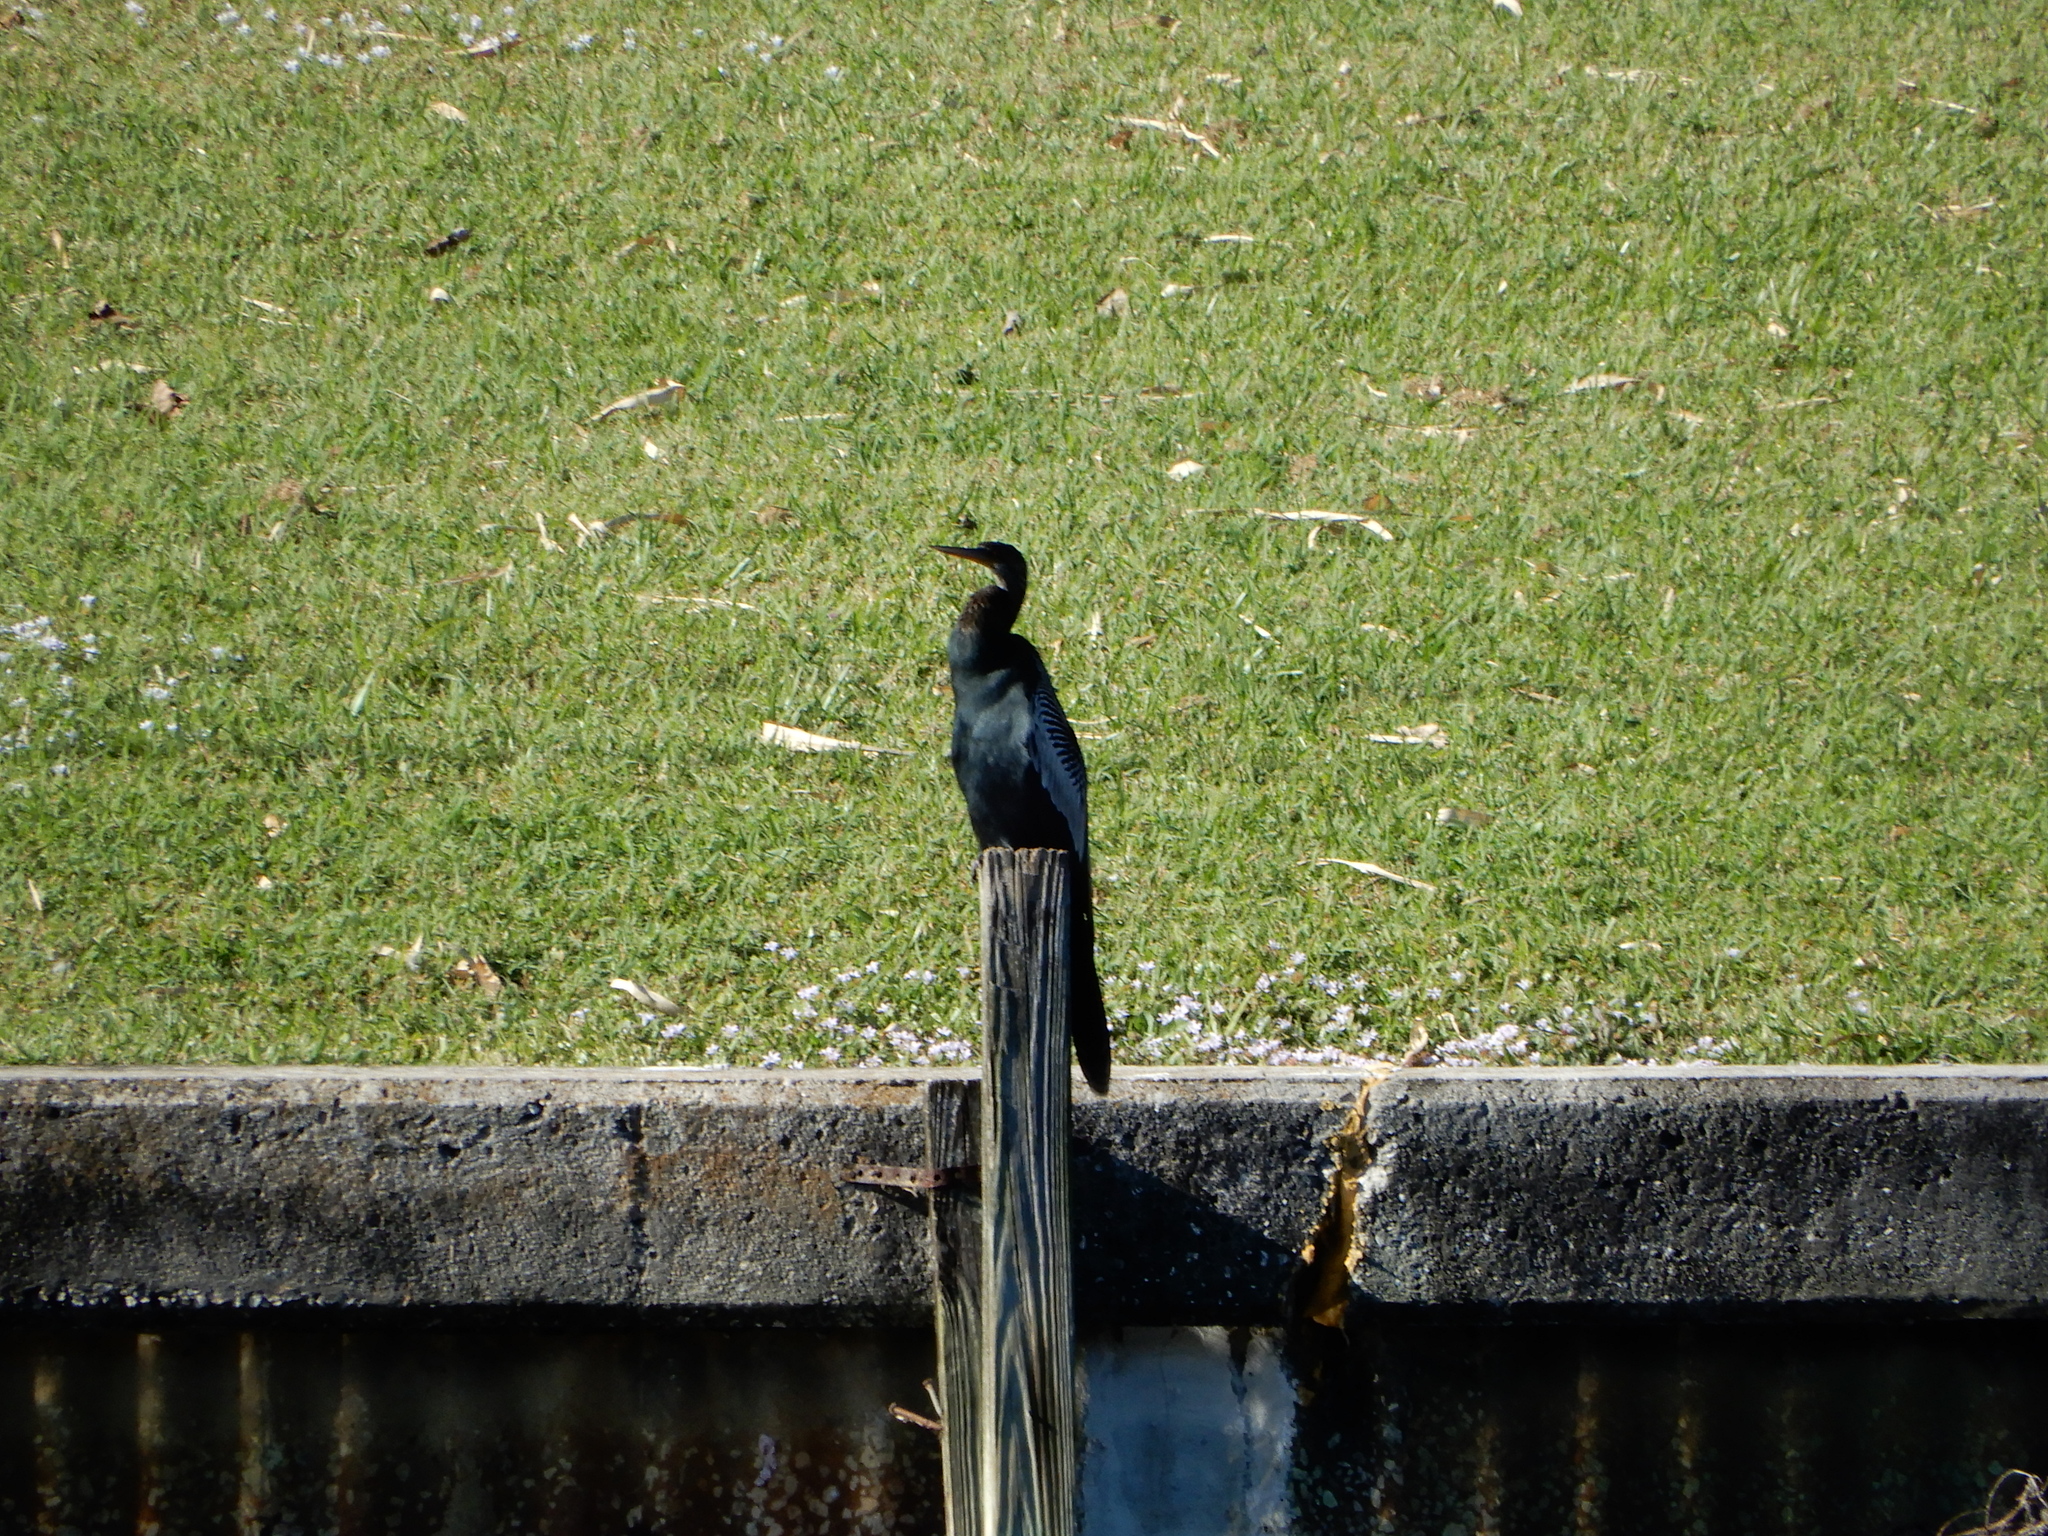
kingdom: Animalia
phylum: Chordata
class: Aves
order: Suliformes
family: Anhingidae
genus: Anhinga
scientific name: Anhinga anhinga
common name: Anhinga
